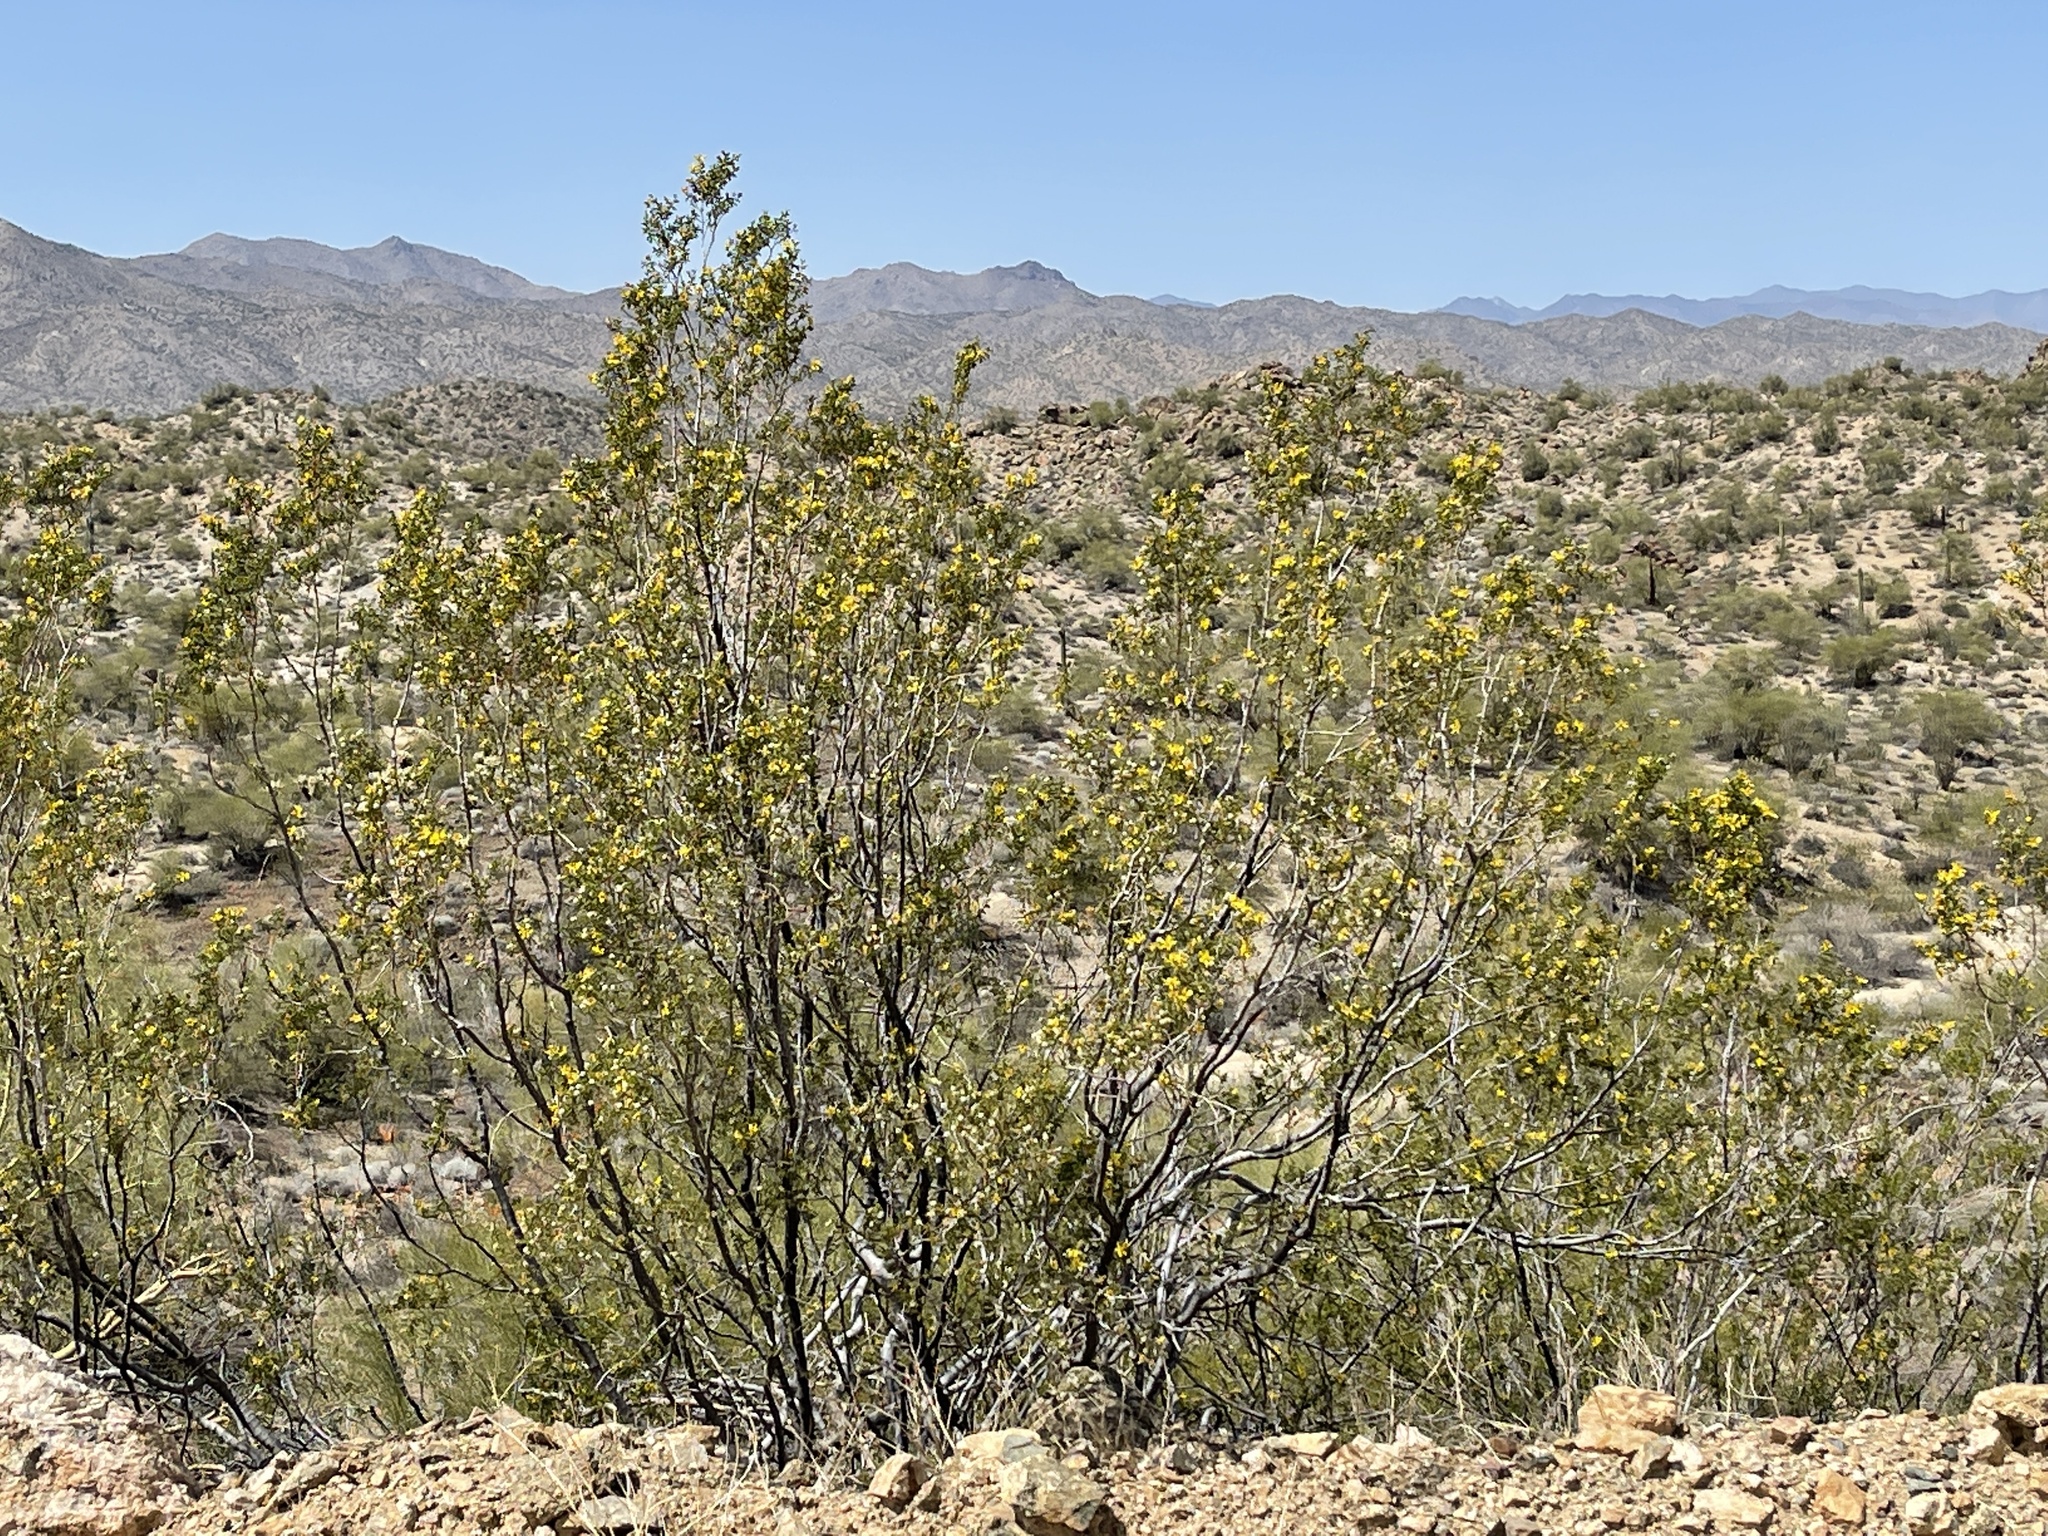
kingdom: Plantae
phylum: Tracheophyta
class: Magnoliopsida
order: Zygophyllales
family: Zygophyllaceae
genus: Larrea
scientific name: Larrea tridentata
